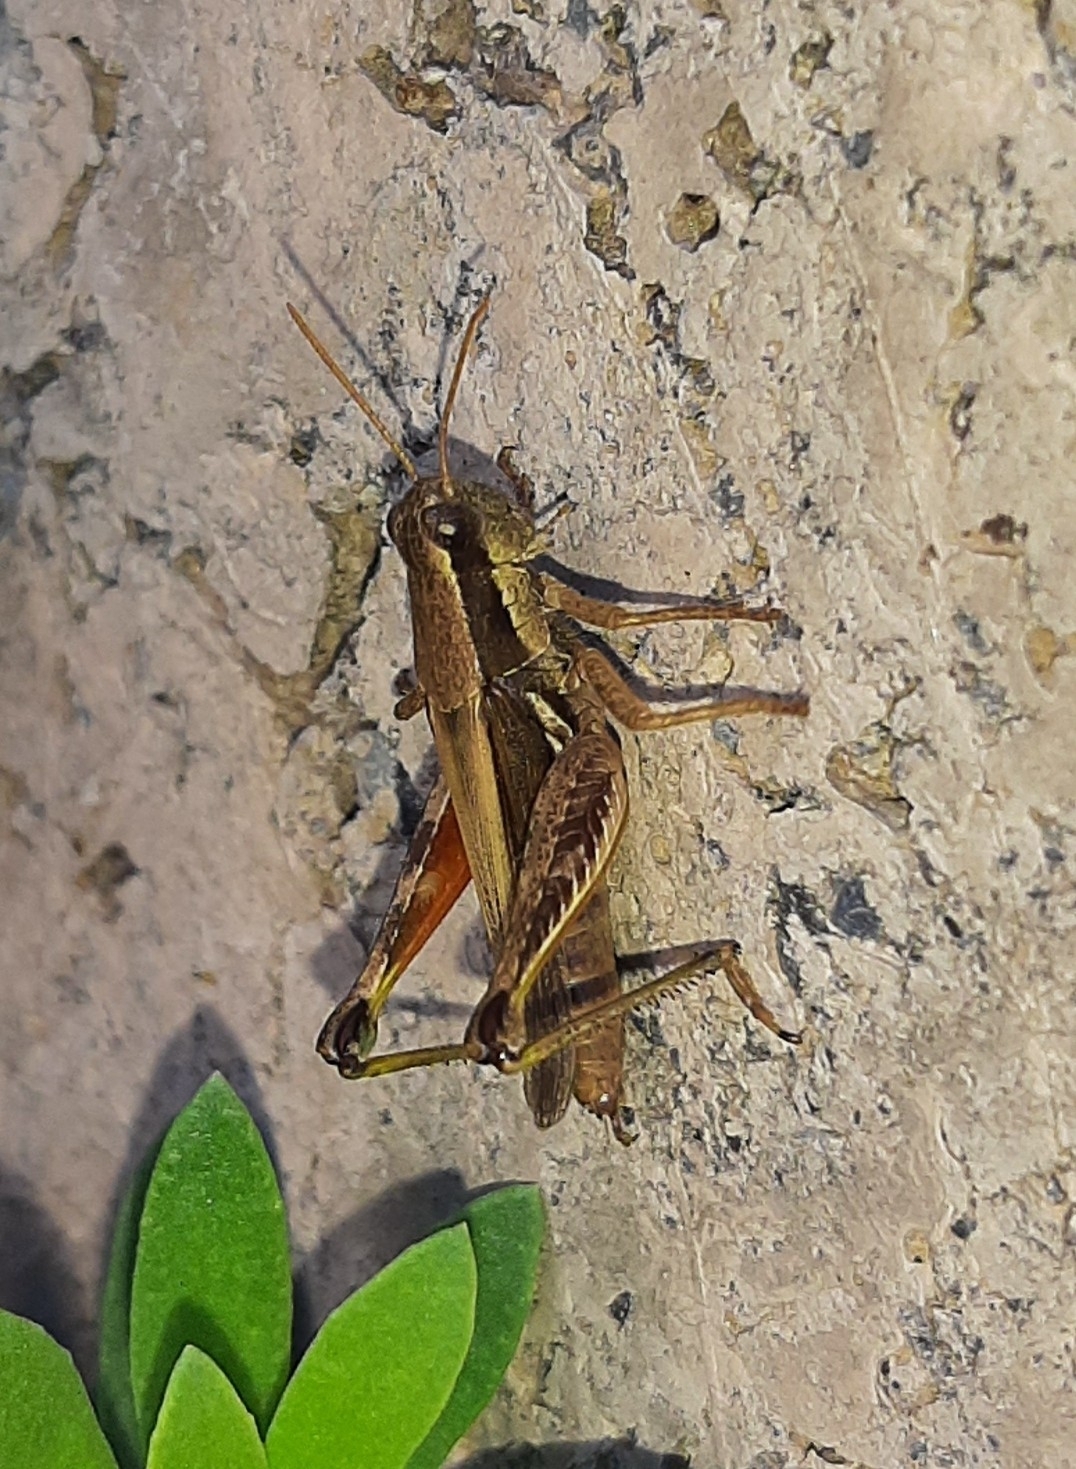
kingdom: Animalia
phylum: Arthropoda
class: Insecta
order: Orthoptera
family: Acrididae
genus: Dichroplus
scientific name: Dichroplus elongatus
